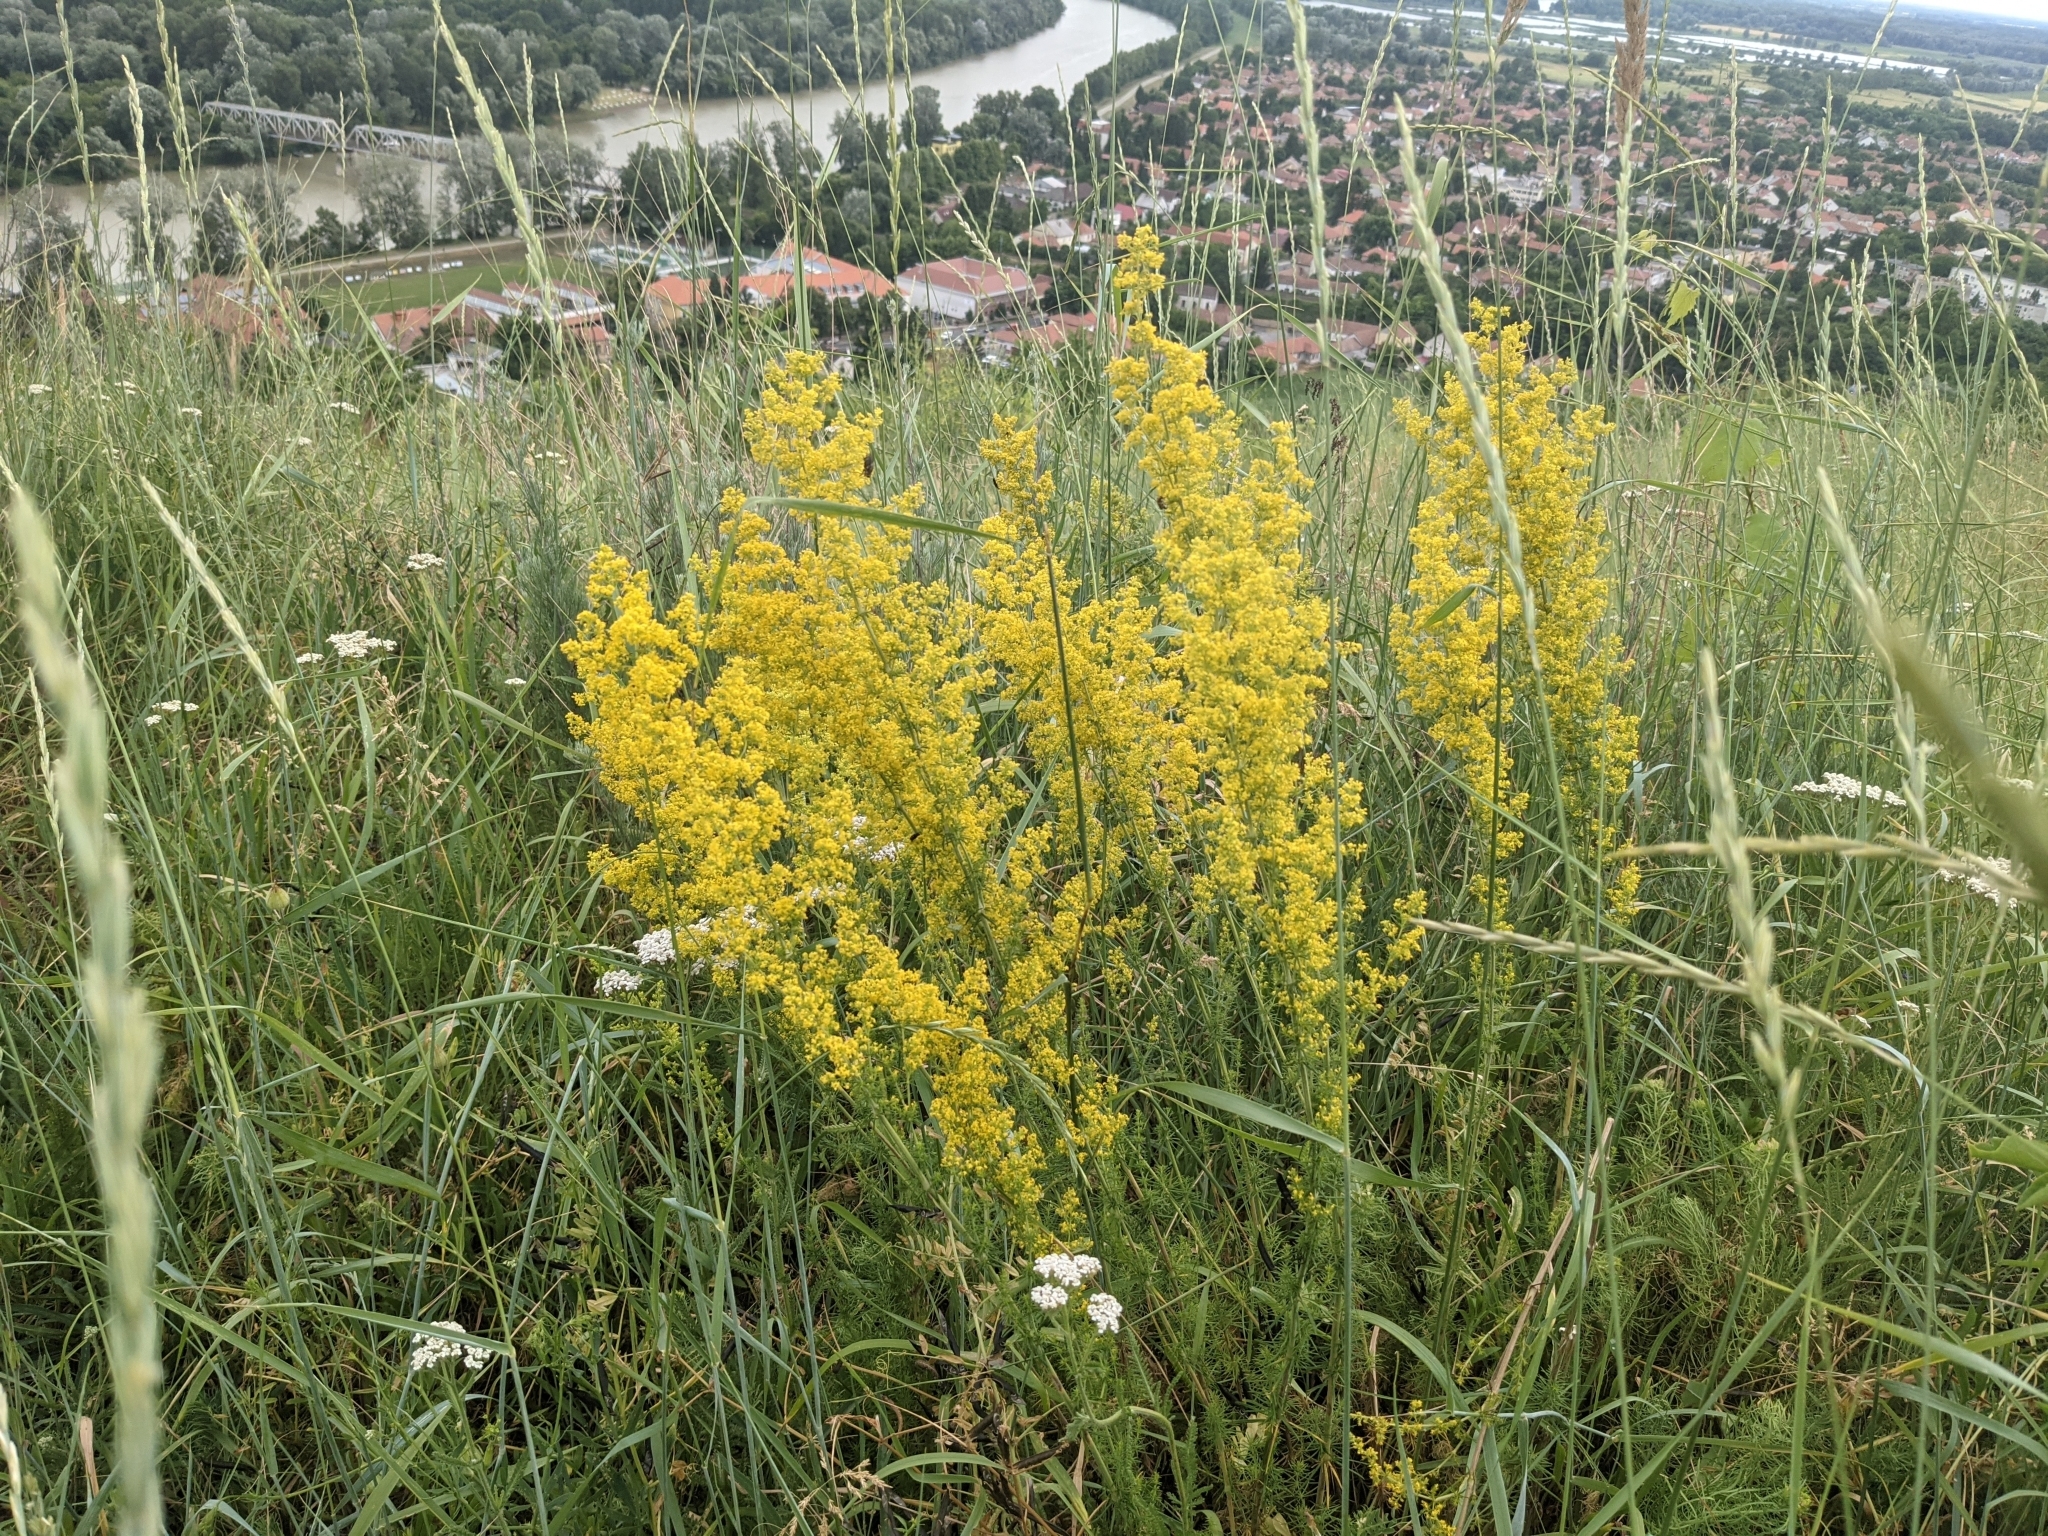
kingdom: Plantae
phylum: Tracheophyta
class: Magnoliopsida
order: Gentianales
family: Rubiaceae
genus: Galium
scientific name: Galium verum
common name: Lady's bedstraw
